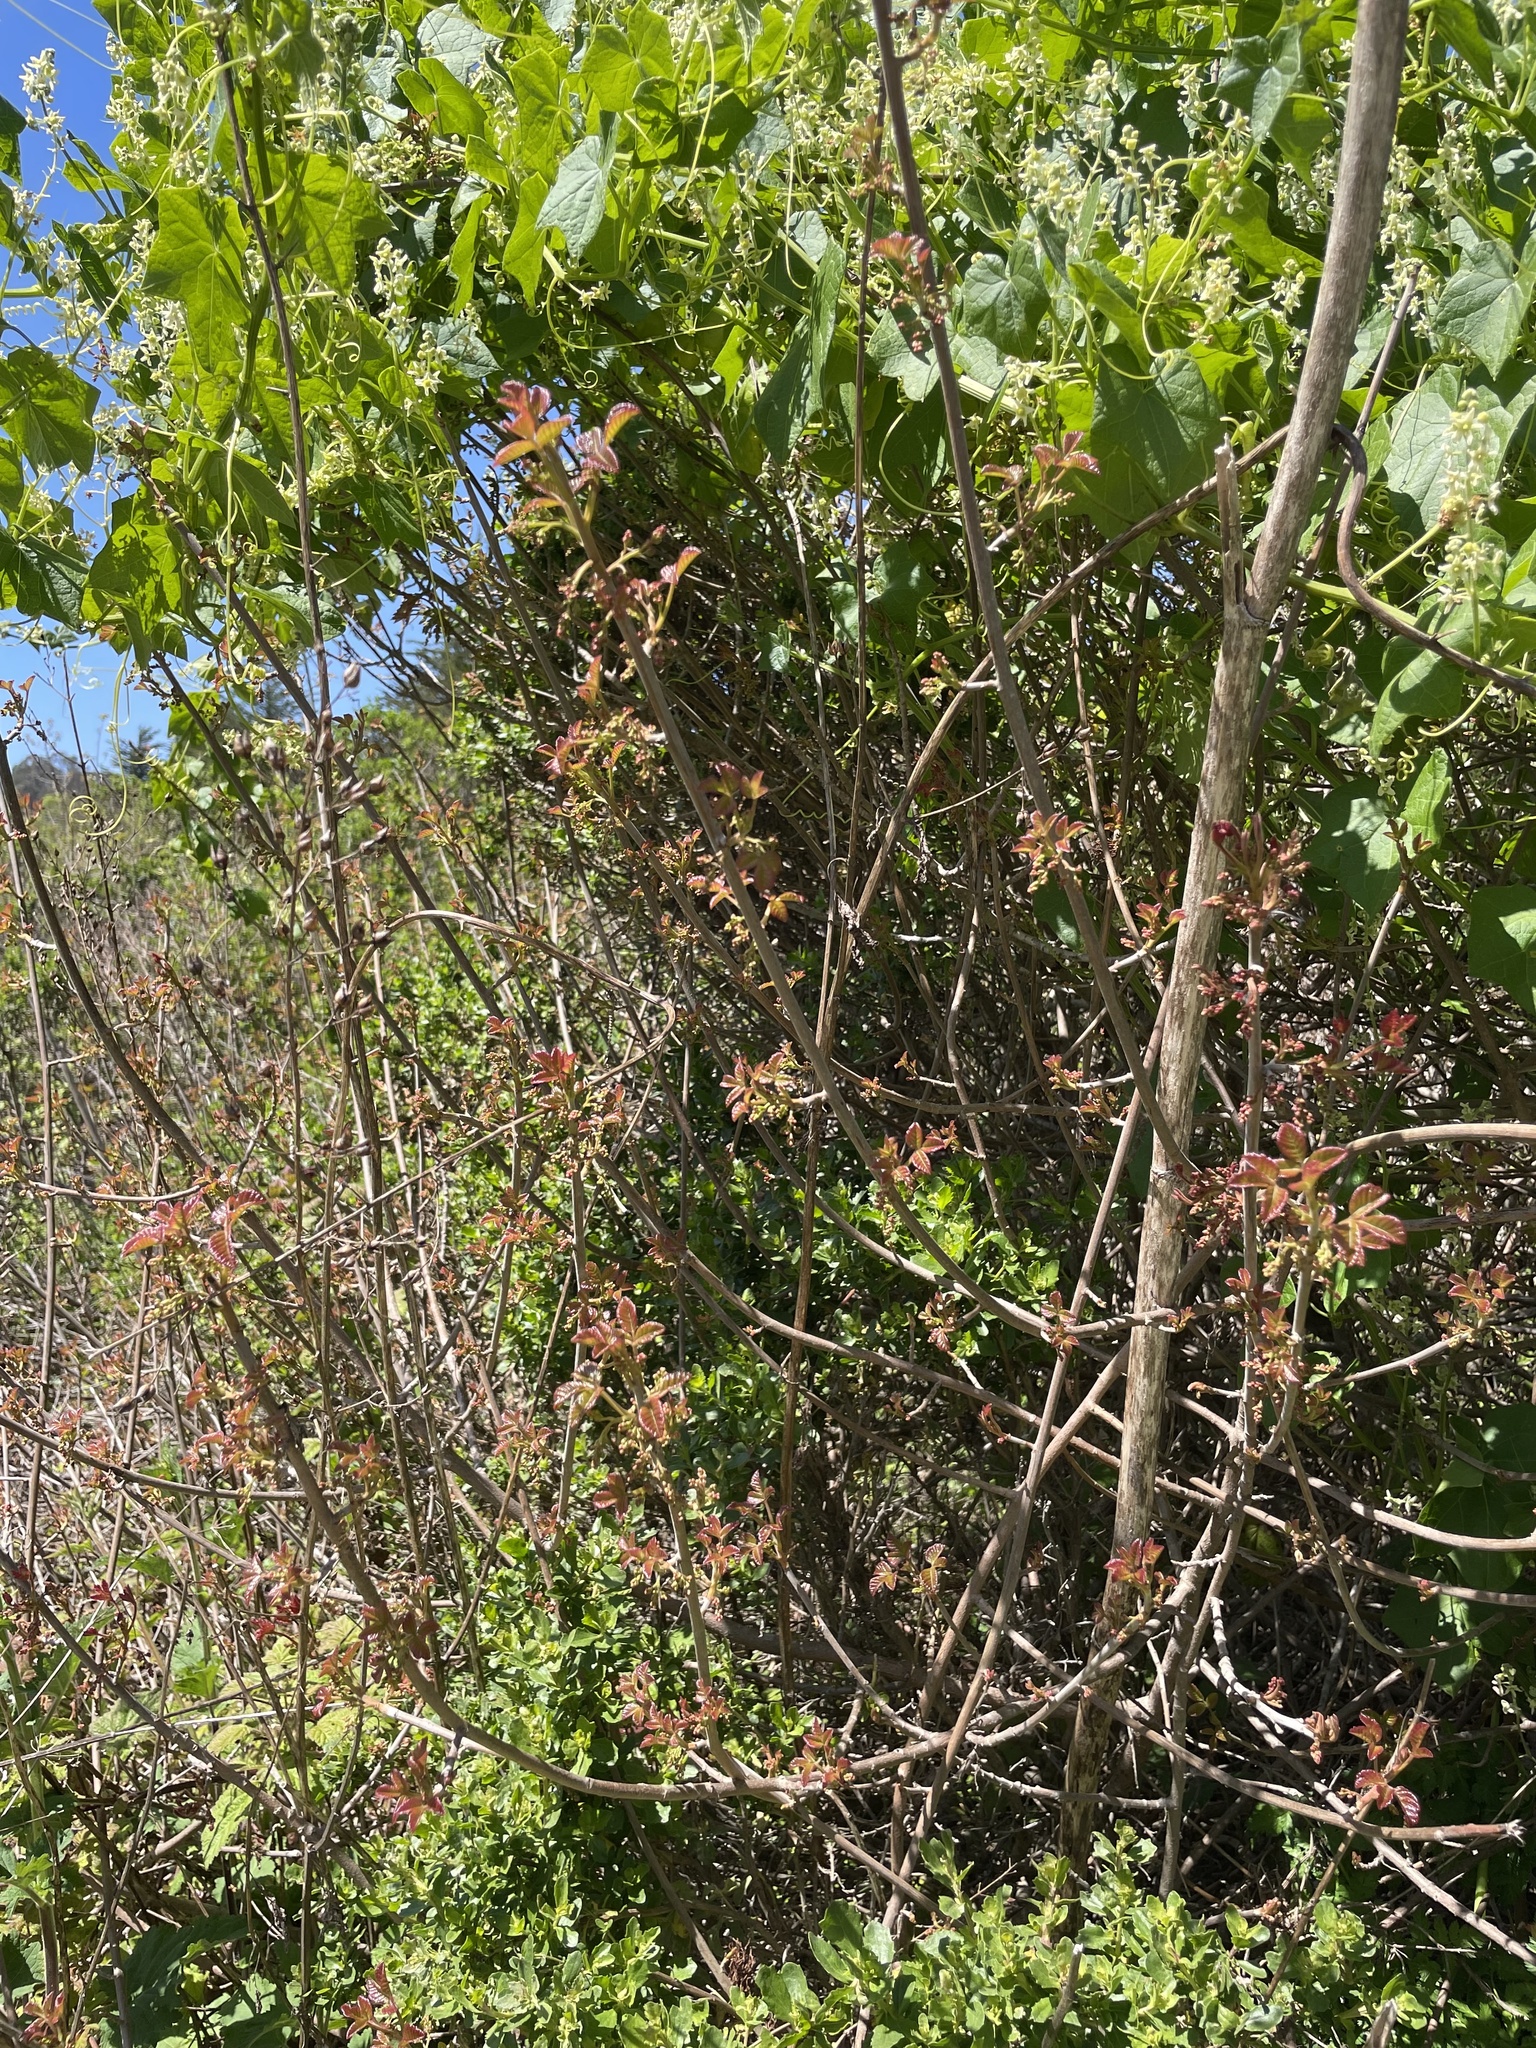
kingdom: Plantae
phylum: Tracheophyta
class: Magnoliopsida
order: Sapindales
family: Anacardiaceae
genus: Toxicodendron
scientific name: Toxicodendron diversilobum
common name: Pacific poison-oak
